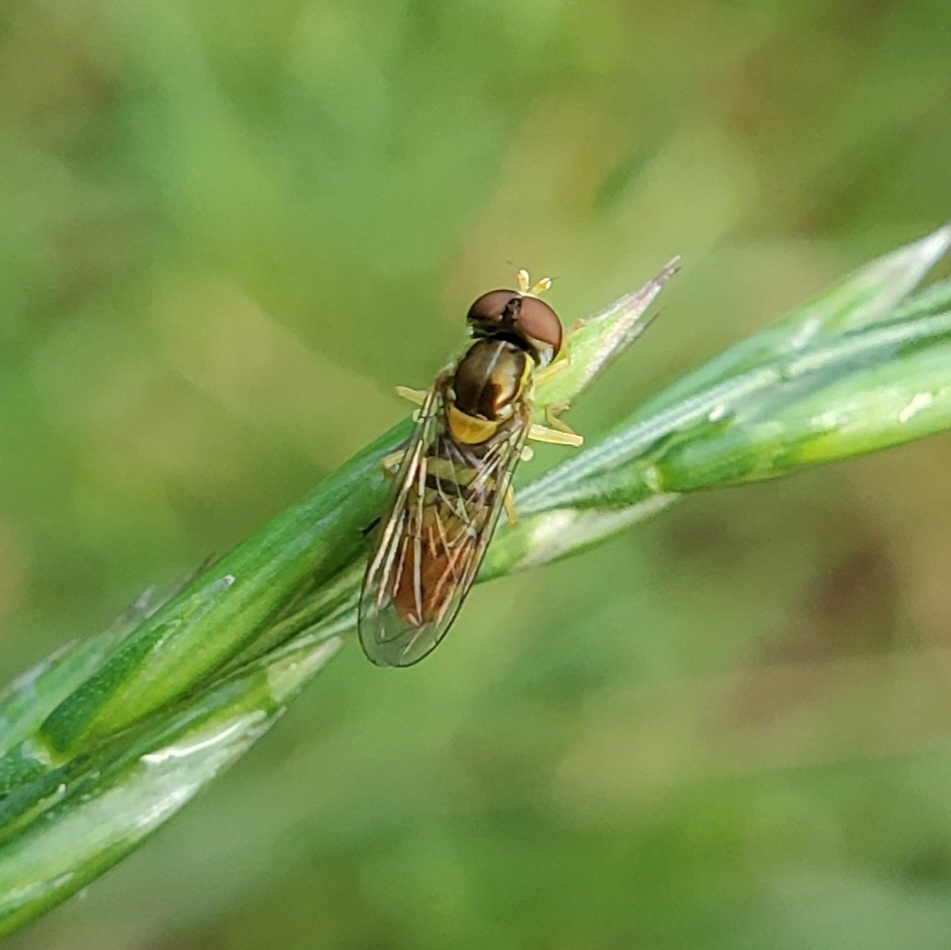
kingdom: Animalia
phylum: Arthropoda
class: Insecta
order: Diptera
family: Syrphidae
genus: Toxomerus
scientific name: Toxomerus marginatus
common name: Syrphid fly
